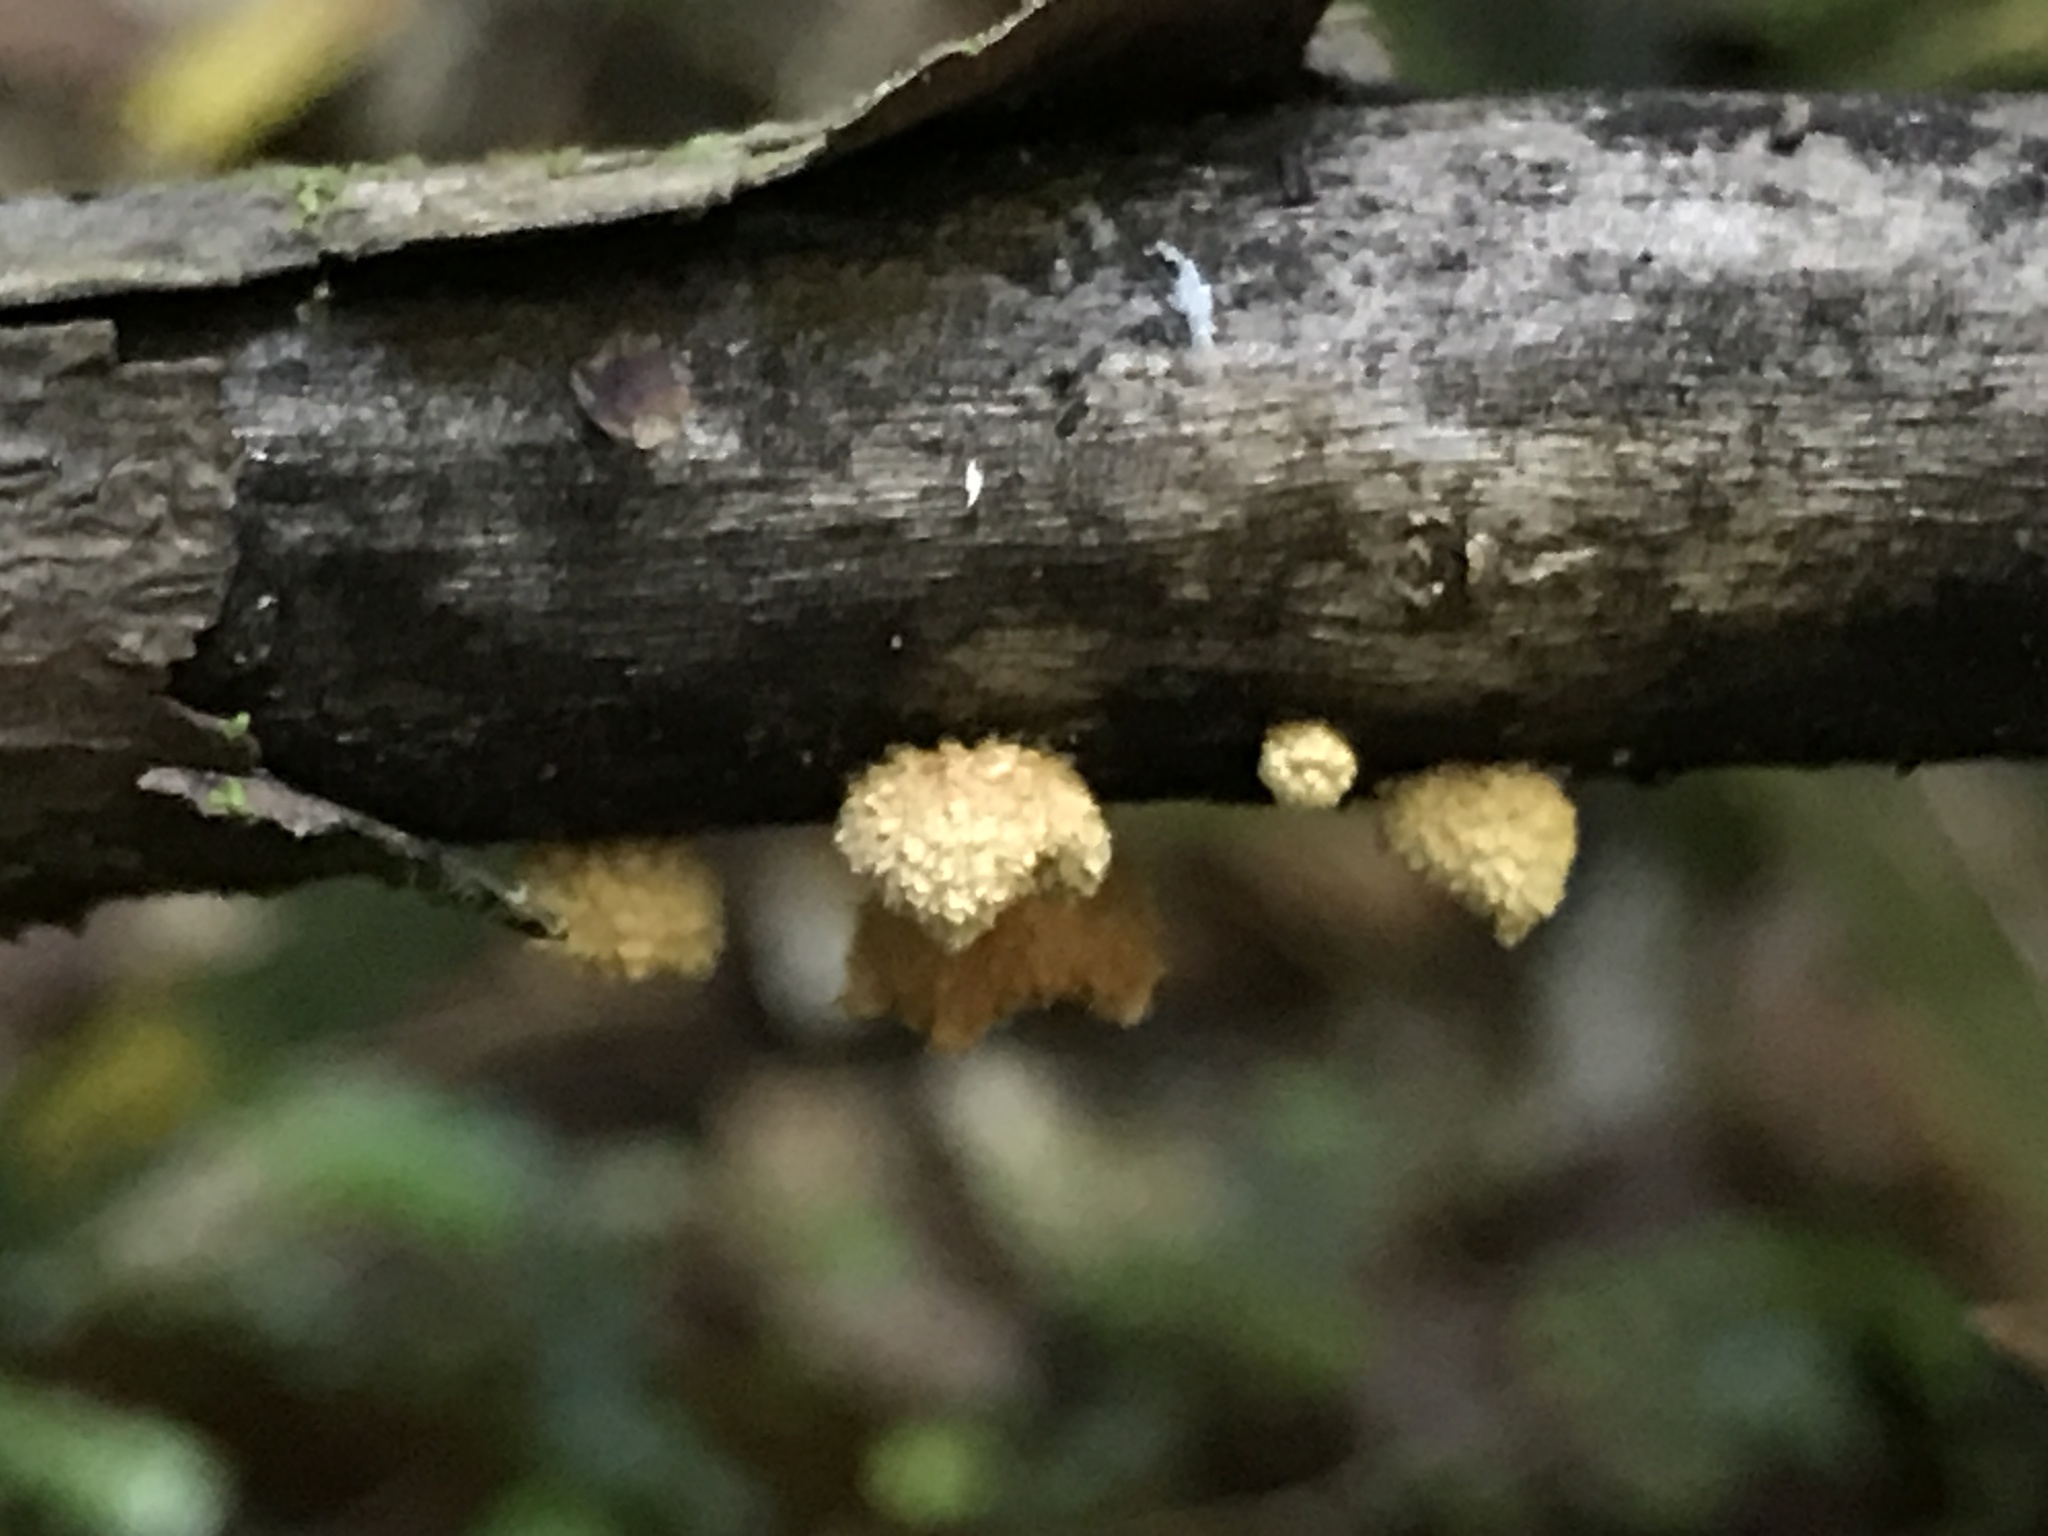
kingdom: Fungi
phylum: Basidiomycota
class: Agaricomycetes
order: Agaricales
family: Crepidotaceae
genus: Pleuroflammula
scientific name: Pleuroflammula praestans
